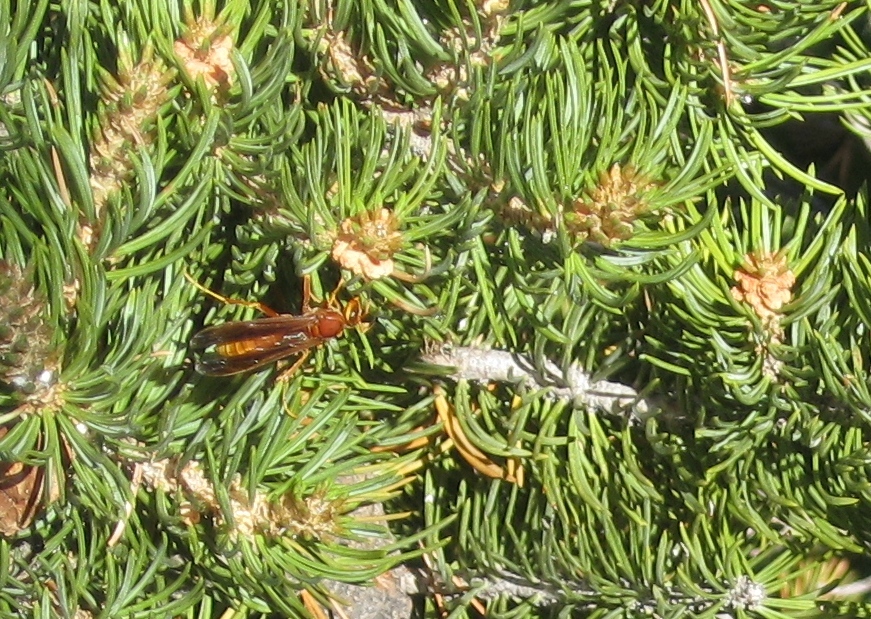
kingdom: Animalia
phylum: Arthropoda
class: Insecta
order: Hymenoptera
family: Eumenidae
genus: Polistes
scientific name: Polistes kaibabensis
